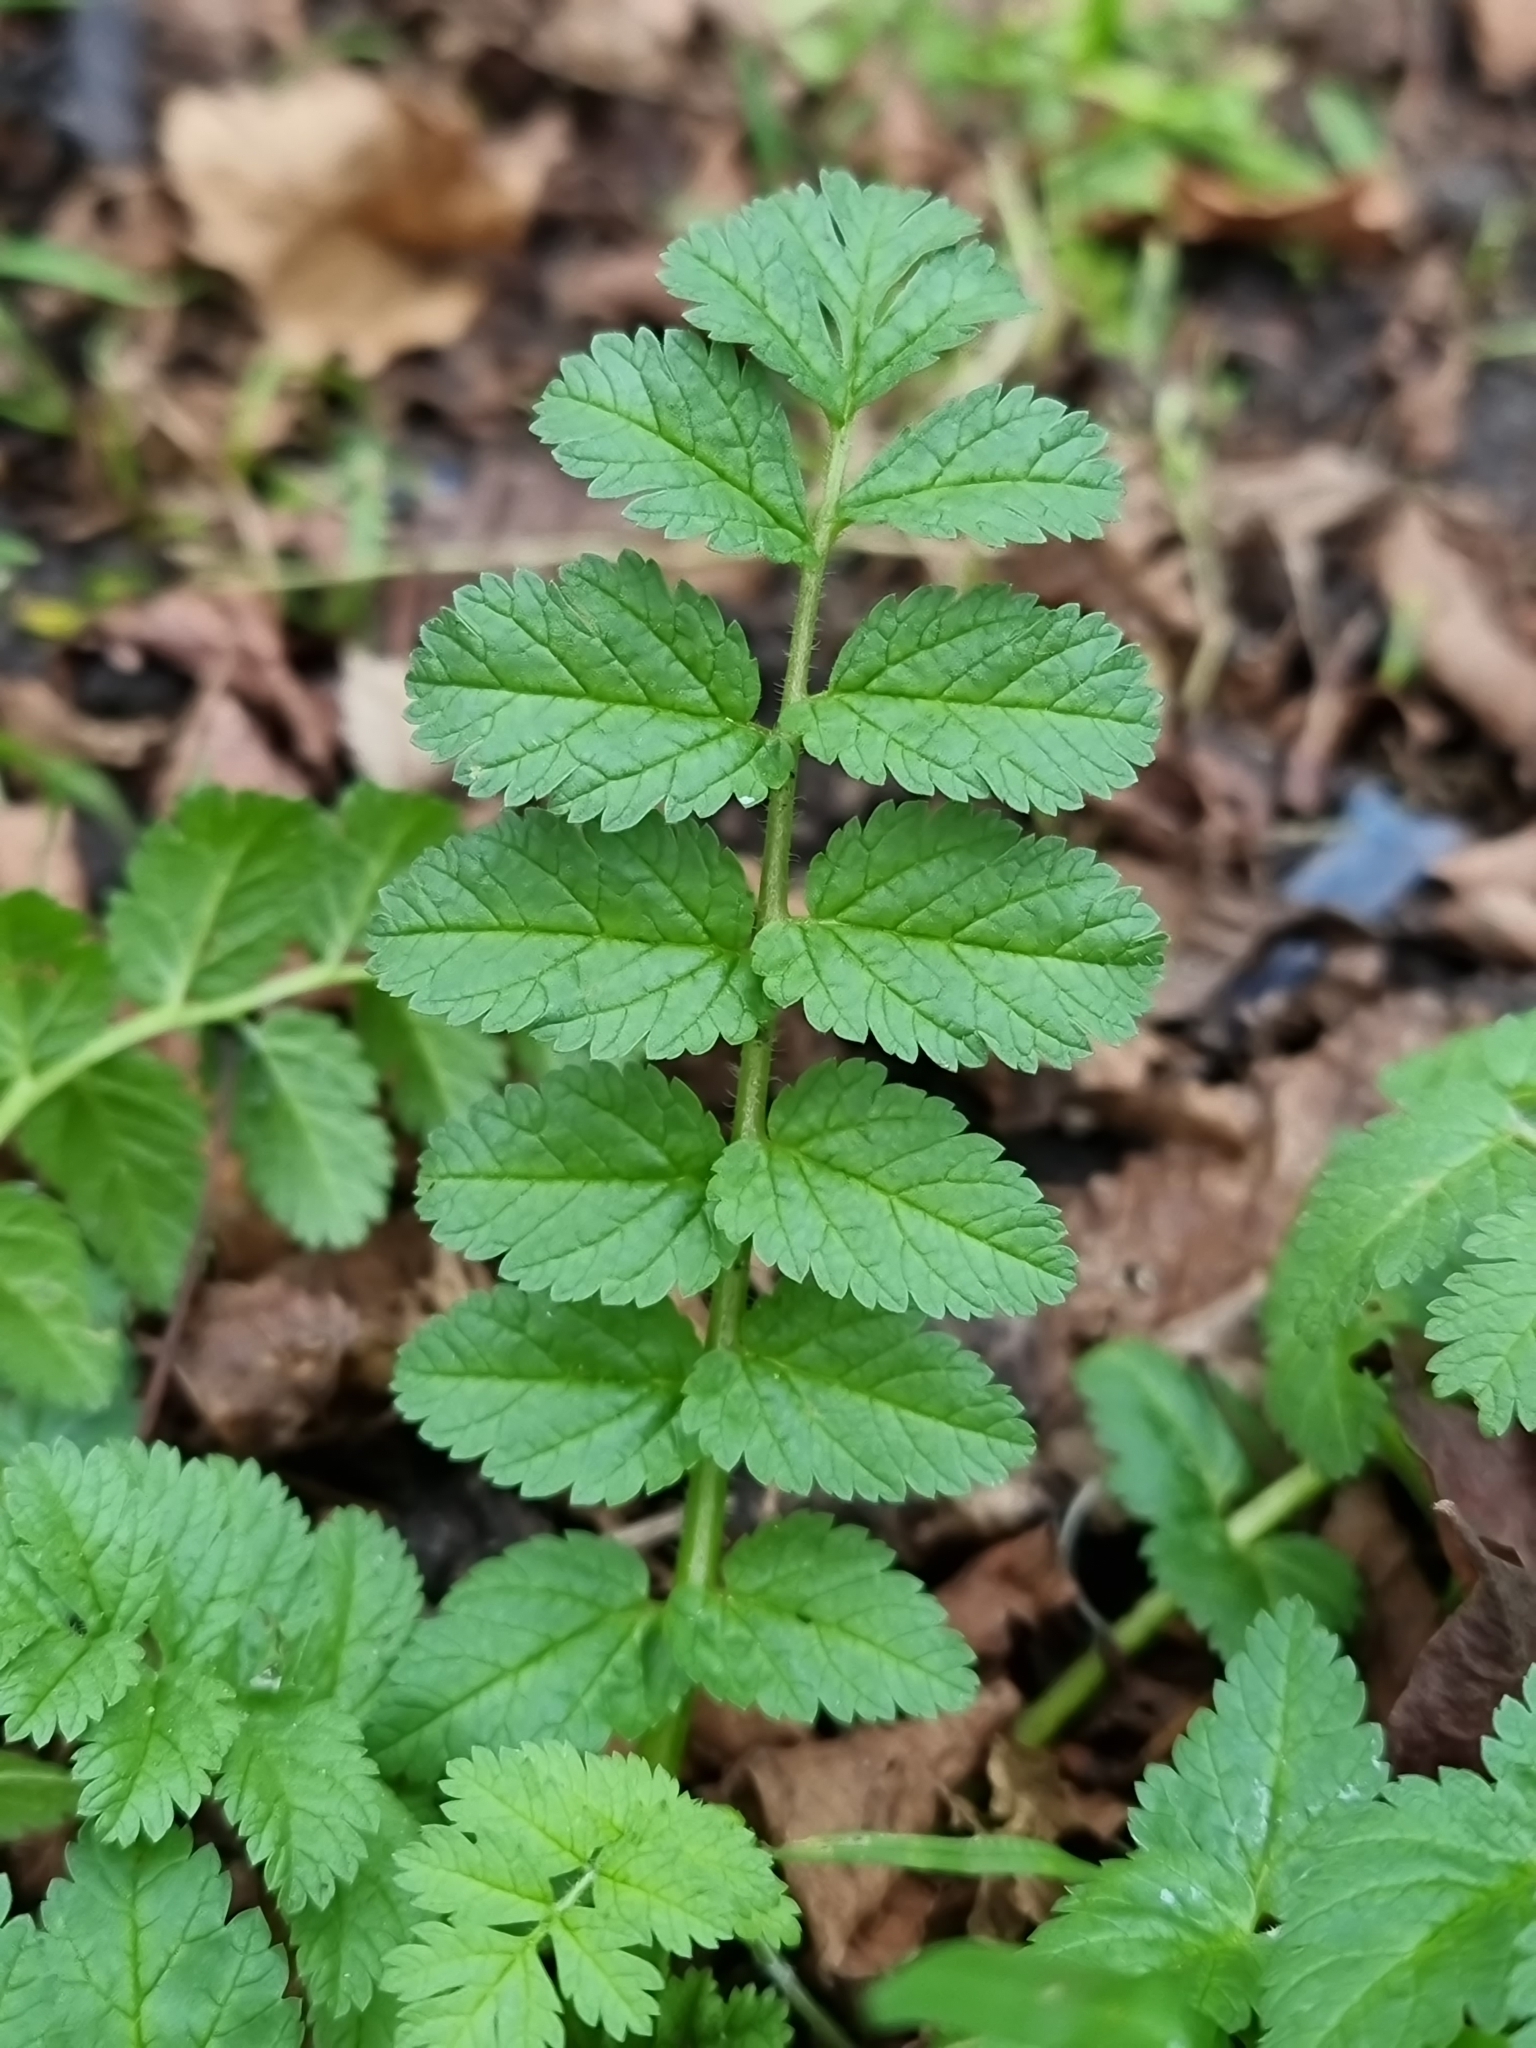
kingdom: Plantae
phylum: Tracheophyta
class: Magnoliopsida
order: Geraniales
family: Geraniaceae
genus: Erodium
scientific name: Erodium moschatum
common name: Musk stork's-bill
